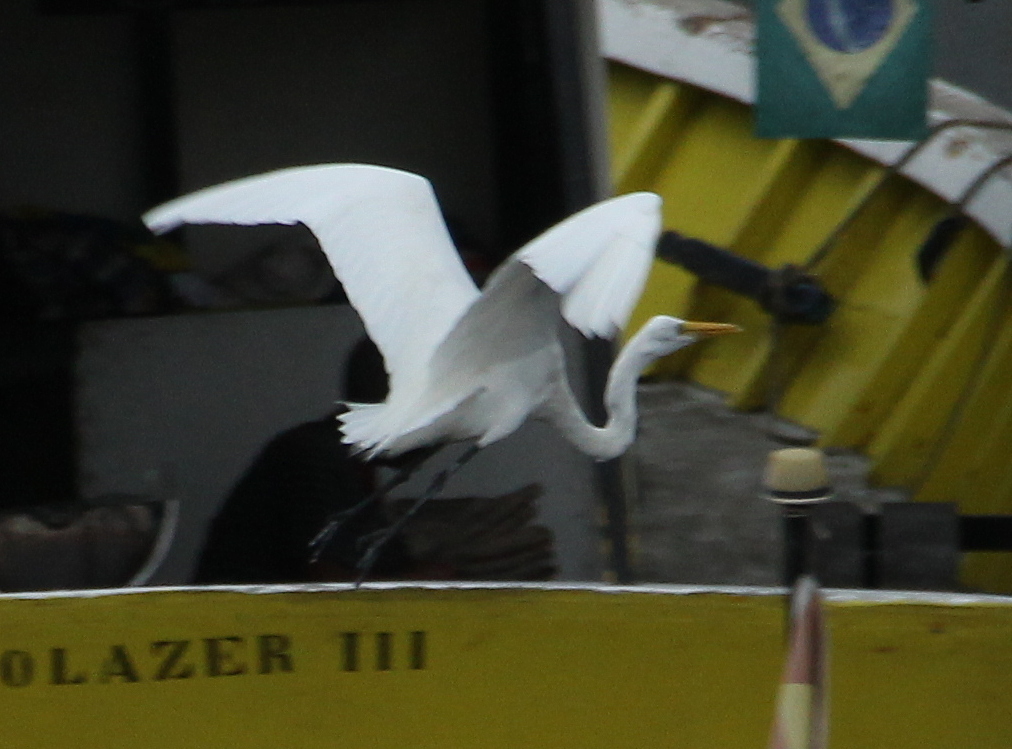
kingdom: Animalia
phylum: Chordata
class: Aves
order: Pelecaniformes
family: Ardeidae
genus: Ardea
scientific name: Ardea alba
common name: Great egret
